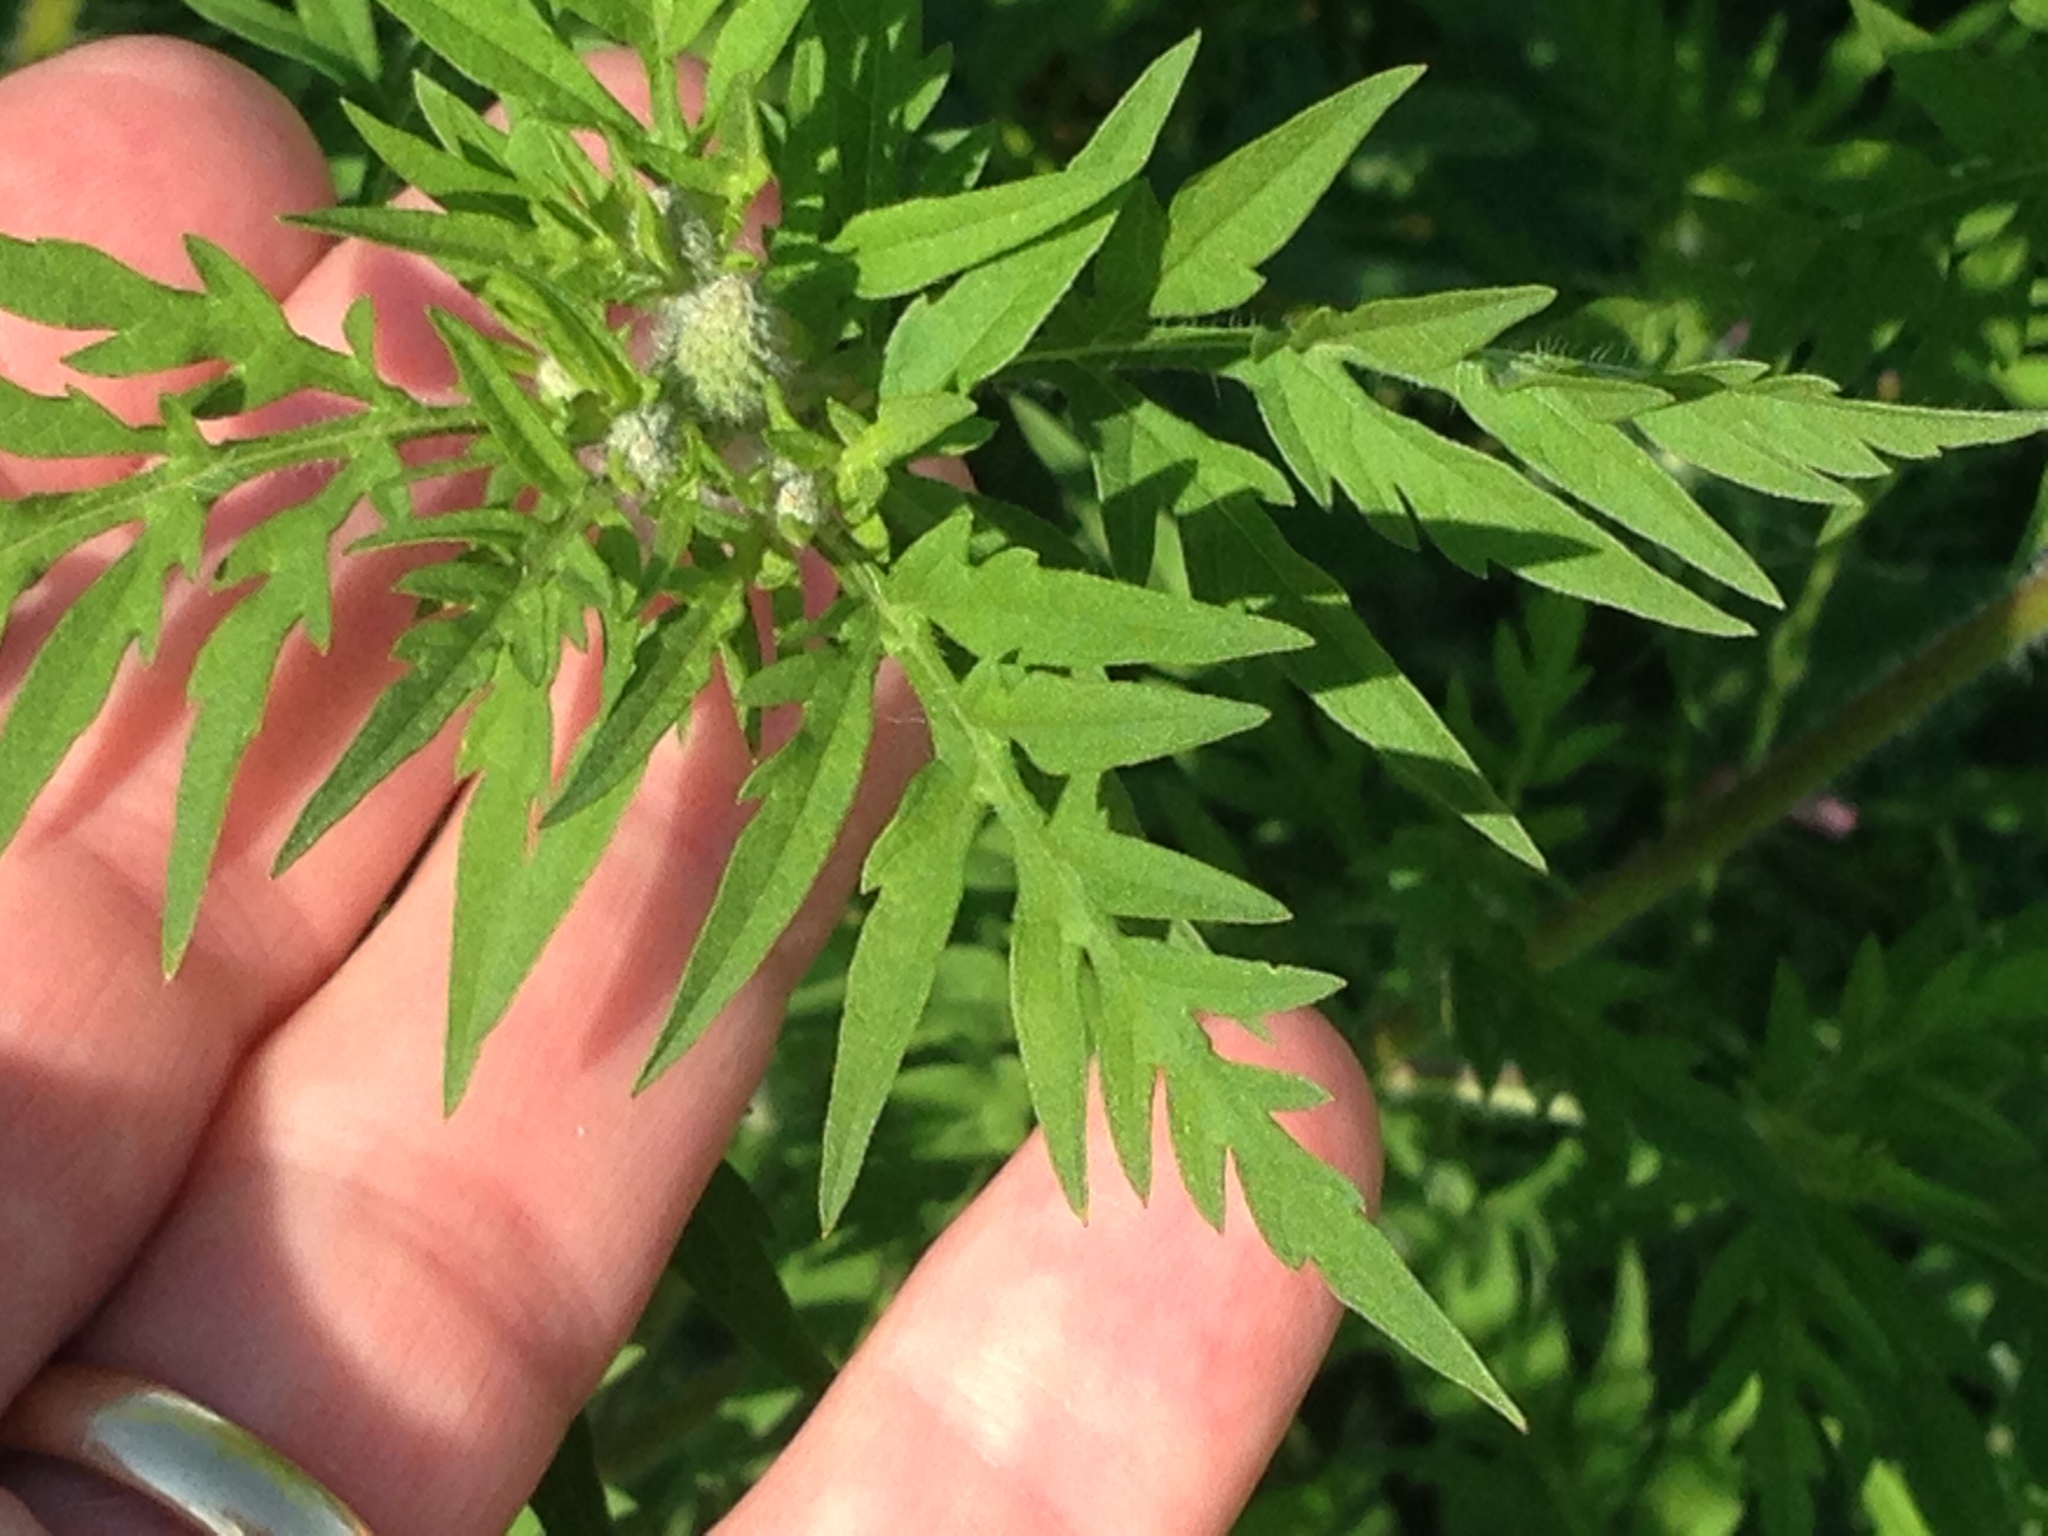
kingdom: Plantae
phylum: Tracheophyta
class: Magnoliopsida
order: Asterales
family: Asteraceae
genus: Ambrosia
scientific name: Ambrosia artemisiifolia
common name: Annual ragweed
